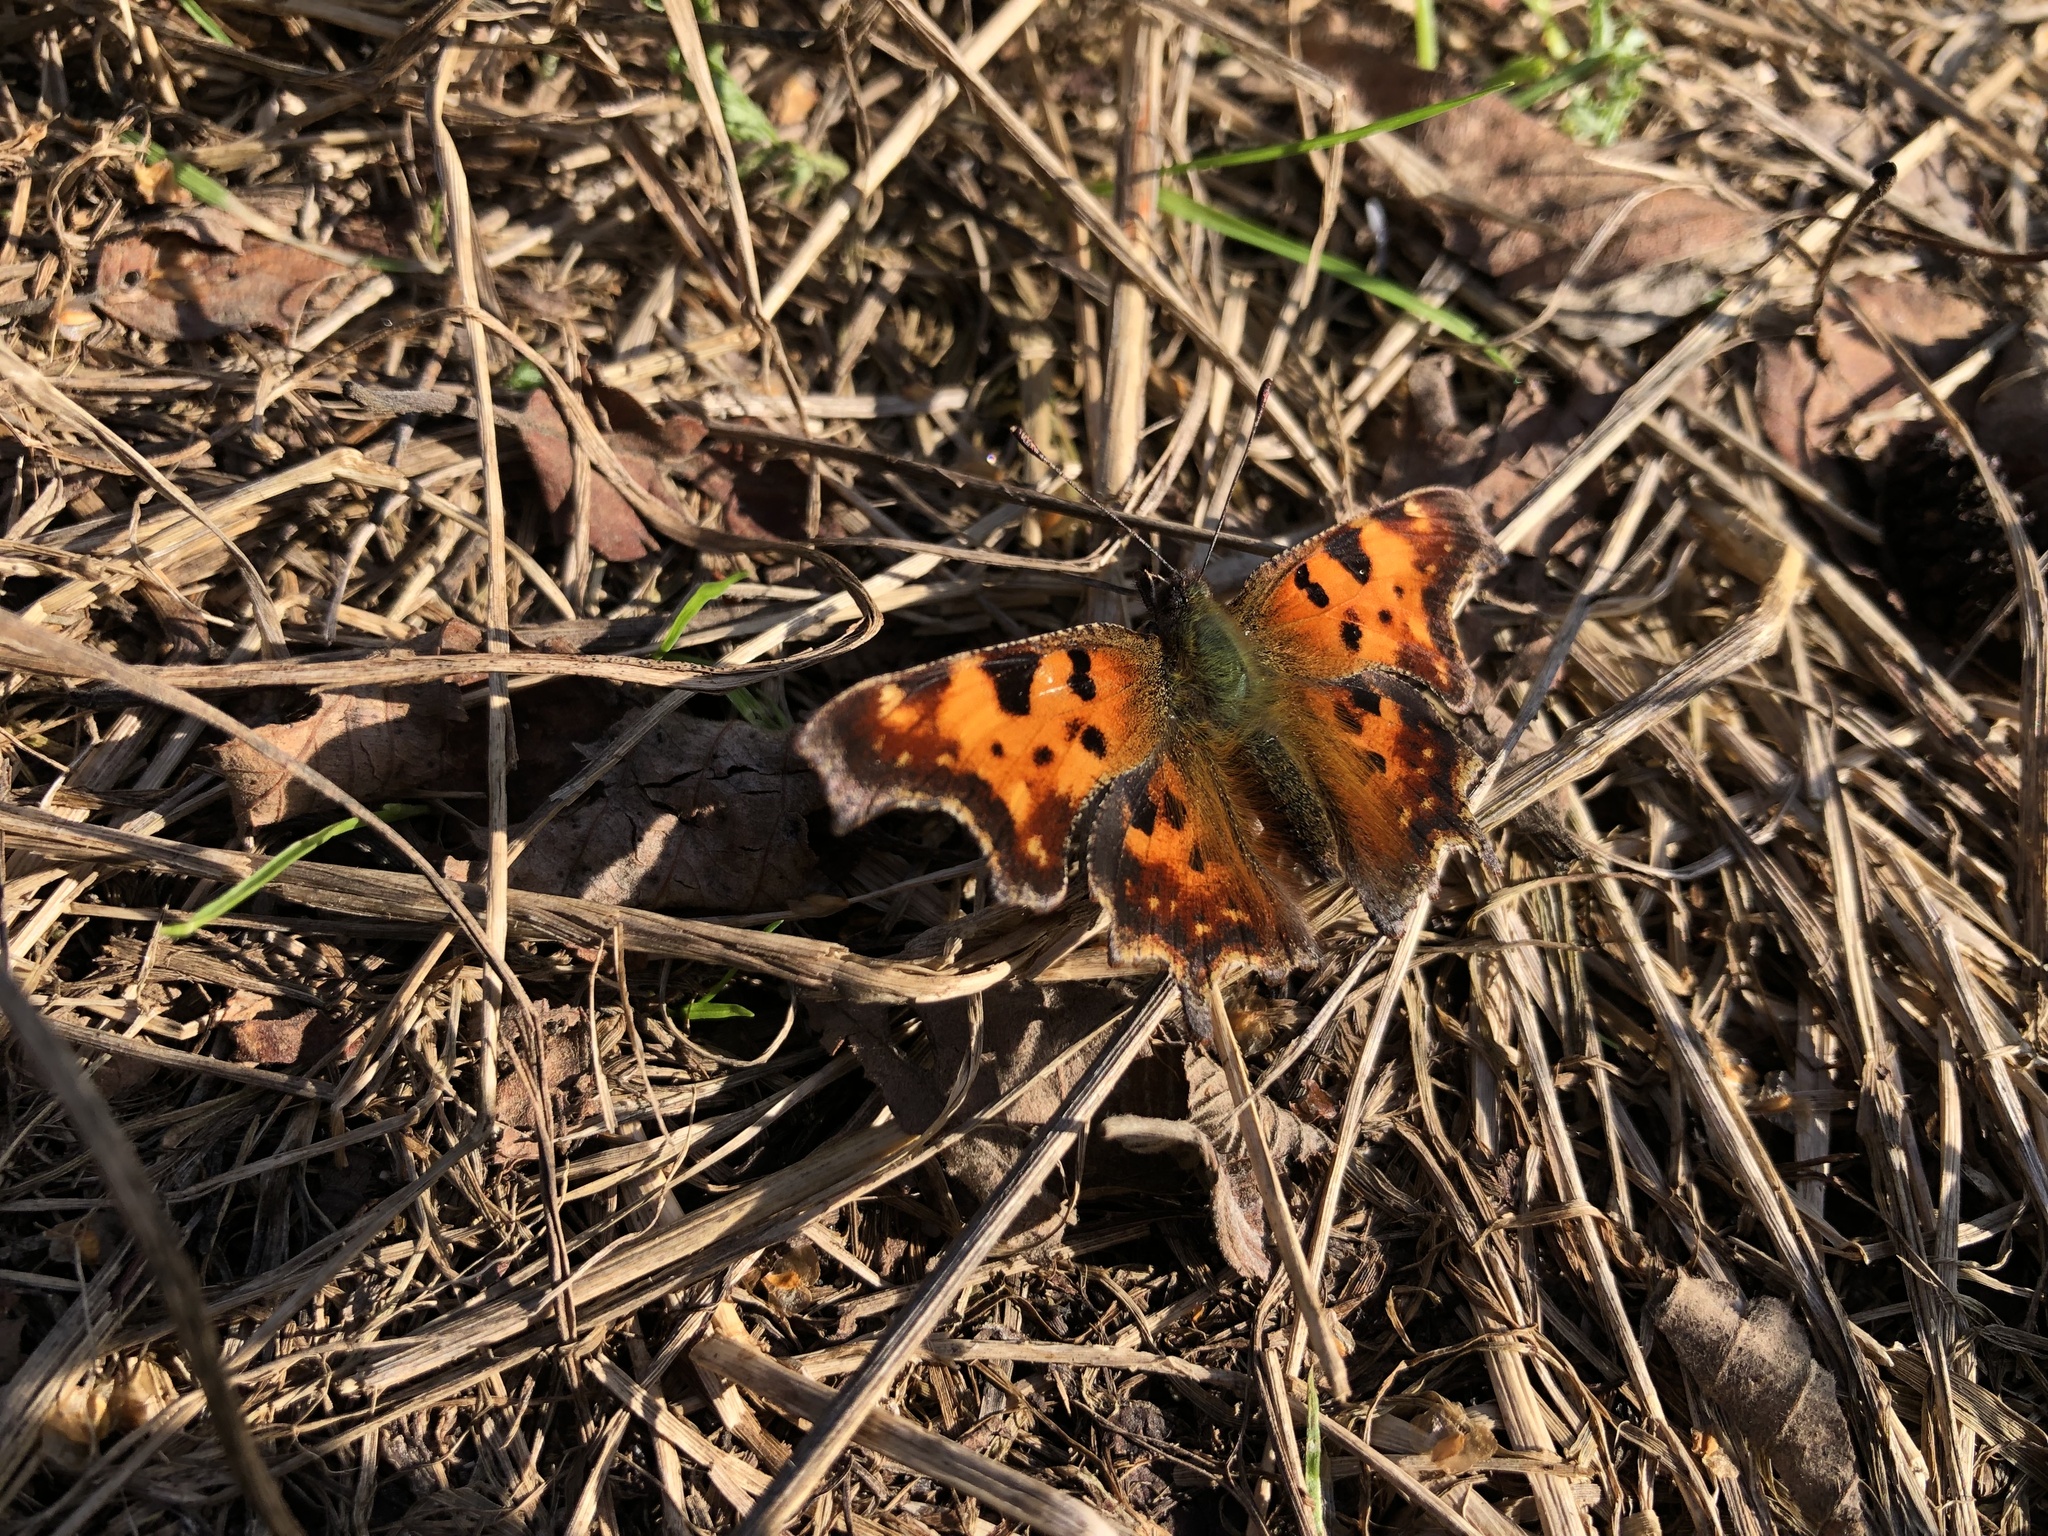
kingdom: Animalia
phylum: Arthropoda
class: Insecta
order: Lepidoptera
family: Nymphalidae
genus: Polygonia
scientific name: Polygonia c-album
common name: Comma
